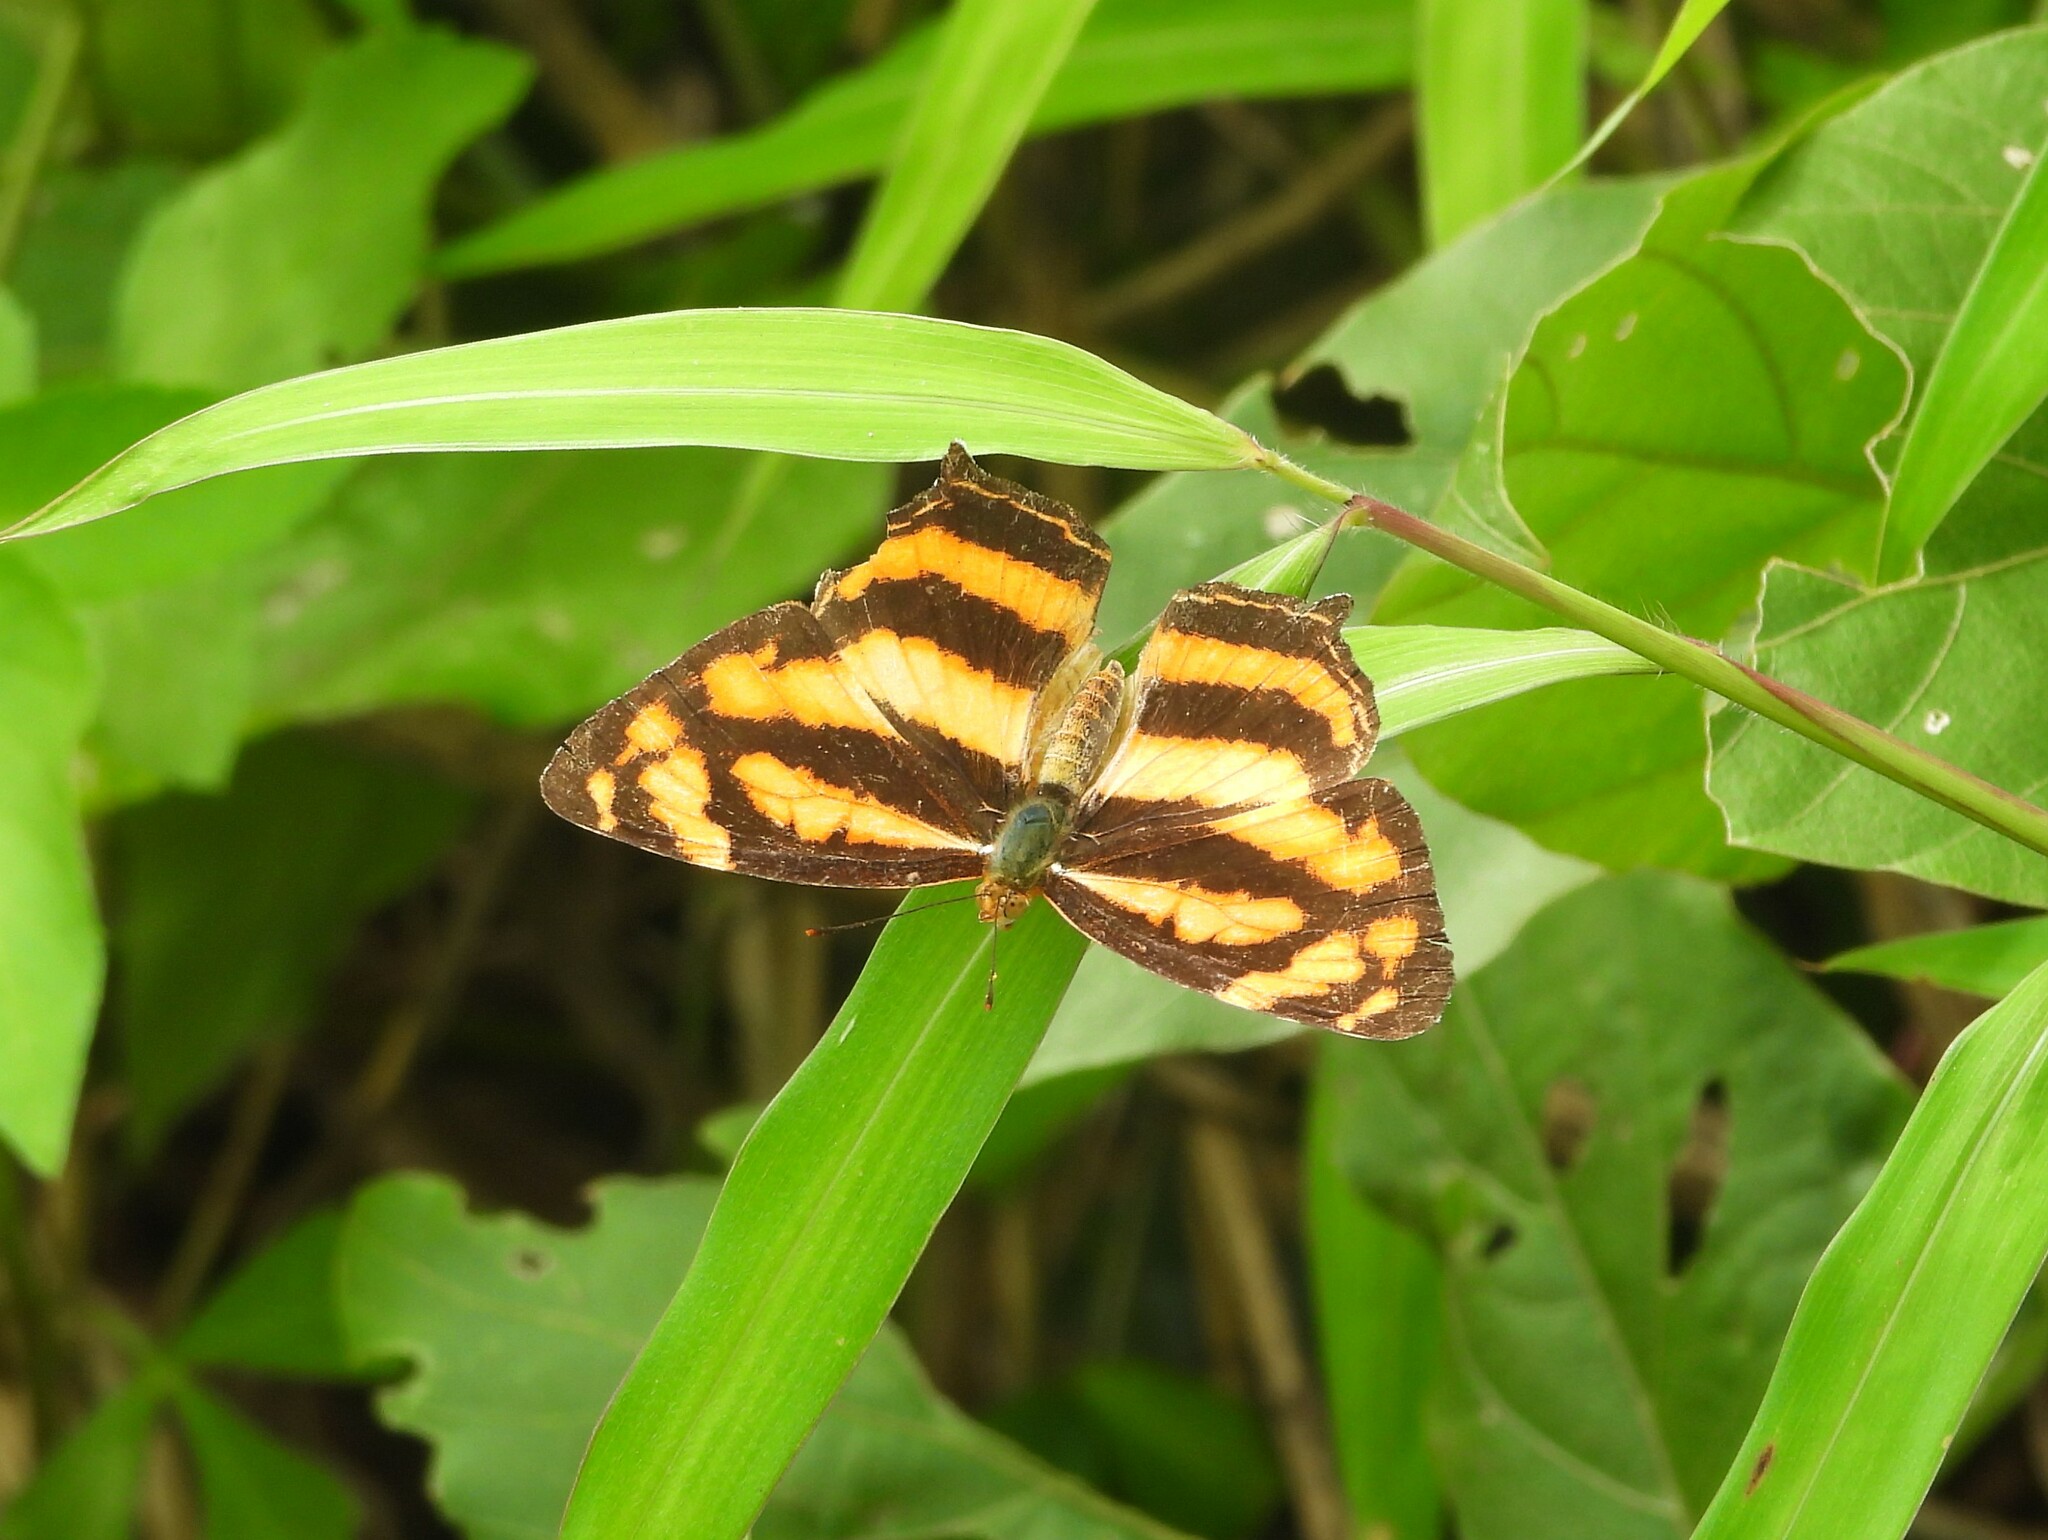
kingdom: Animalia
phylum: Arthropoda
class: Insecta
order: Lepidoptera
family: Nymphalidae
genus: Symbrenthia
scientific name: Symbrenthia hypselis
